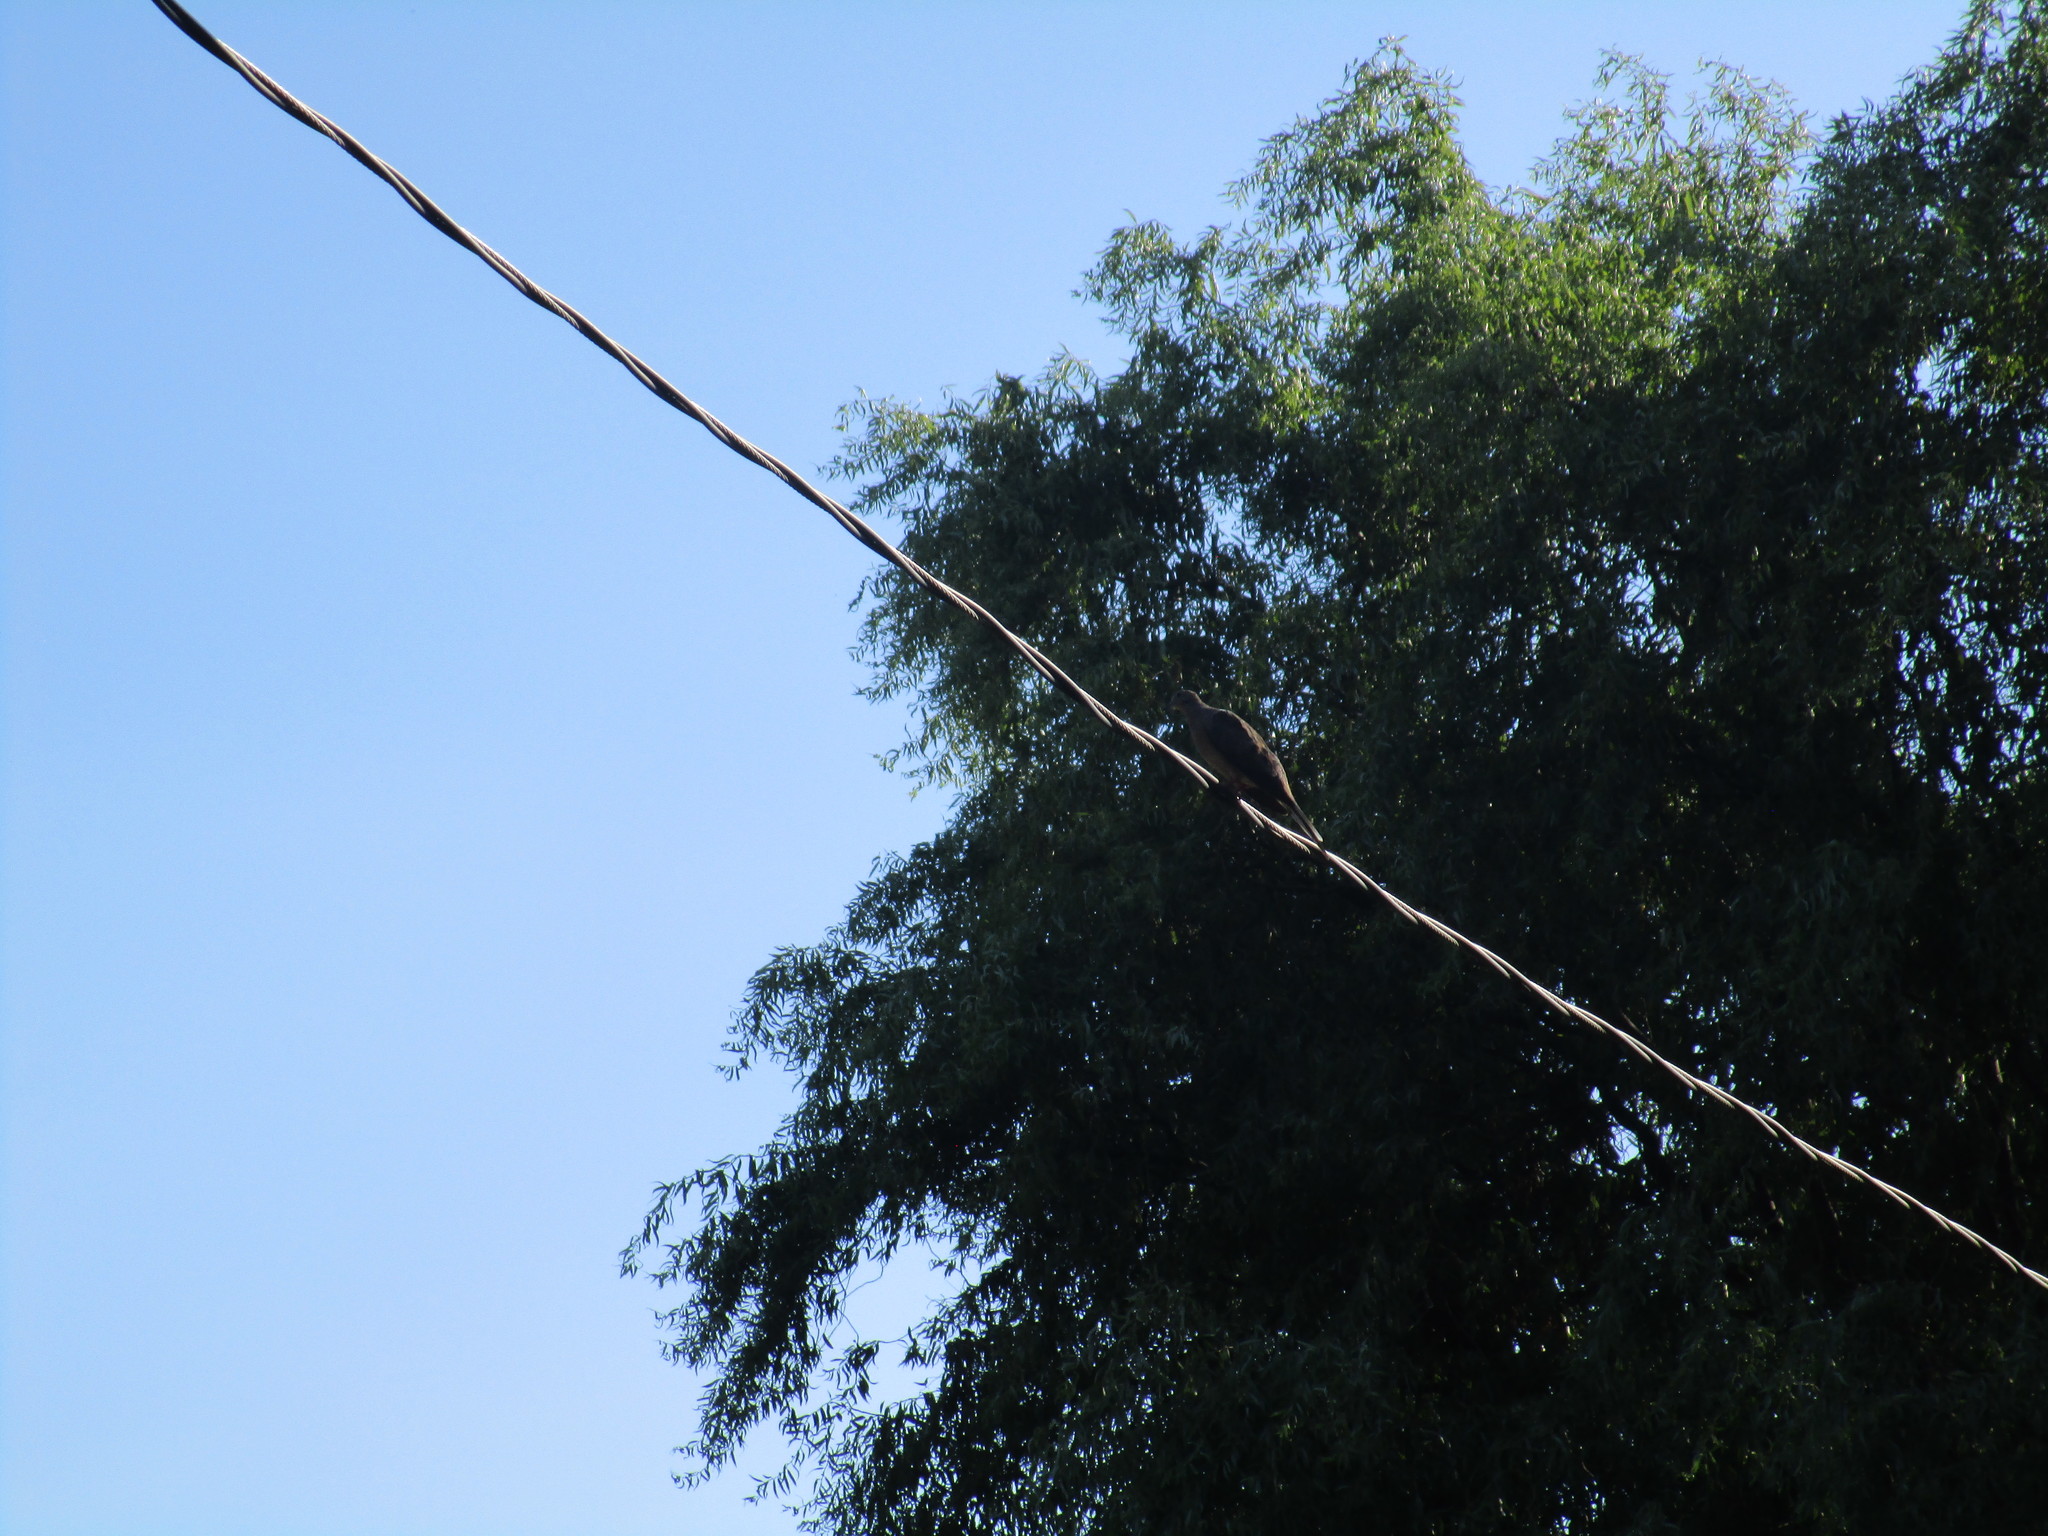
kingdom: Animalia
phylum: Chordata
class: Aves
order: Columbiformes
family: Columbidae
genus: Zenaida
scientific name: Zenaida macroura
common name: Mourning dove
